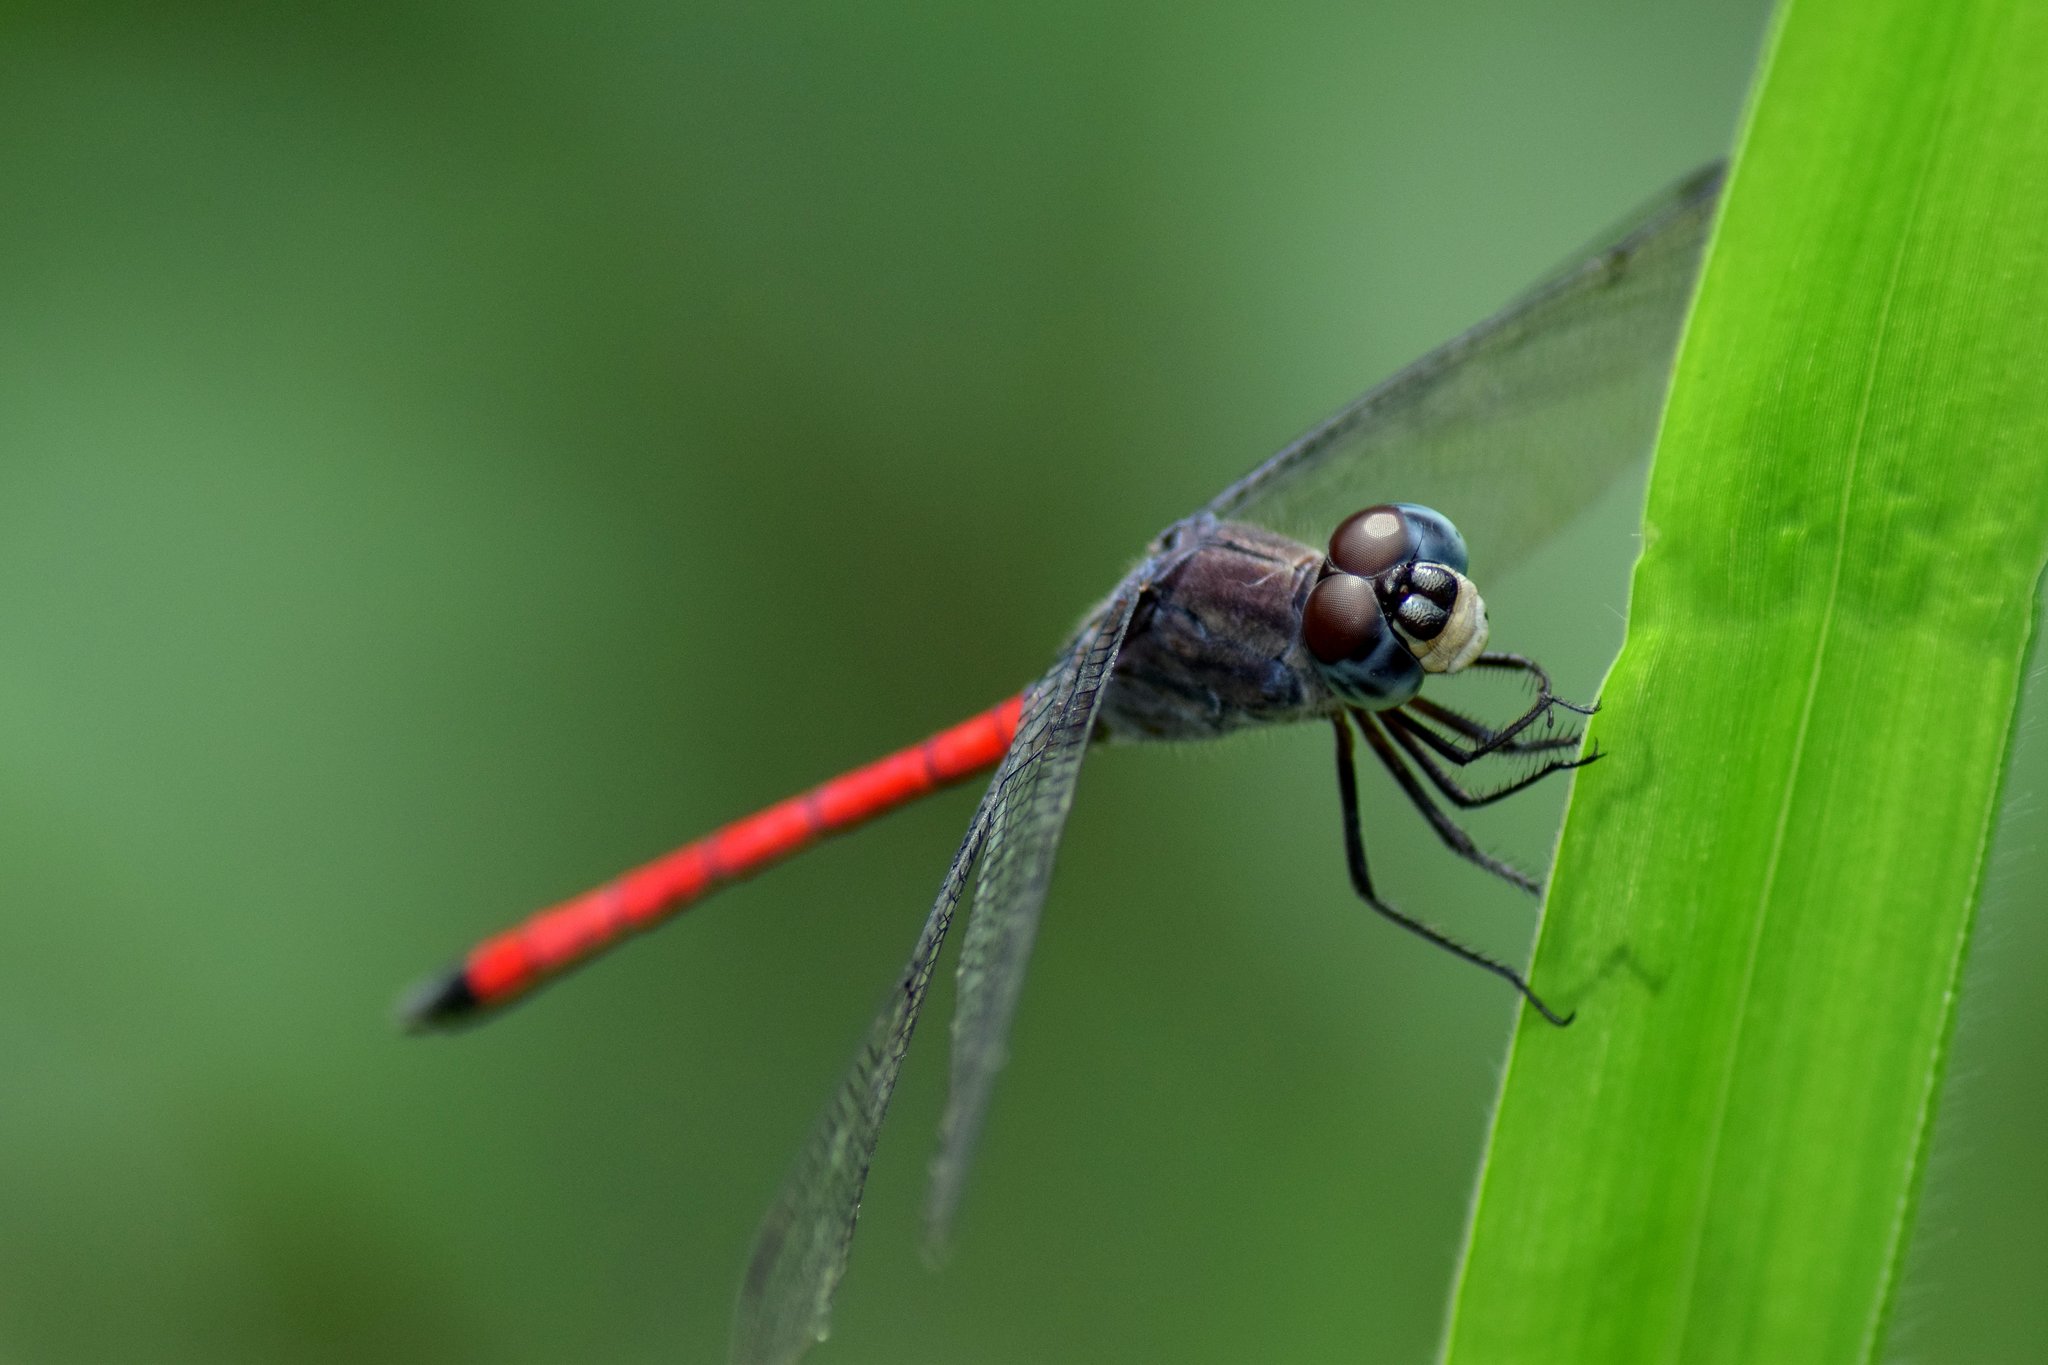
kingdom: Animalia
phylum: Arthropoda
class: Insecta
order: Odonata
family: Libellulidae
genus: Lathrecista
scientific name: Lathrecista asiatica
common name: Scarlet grenadier
